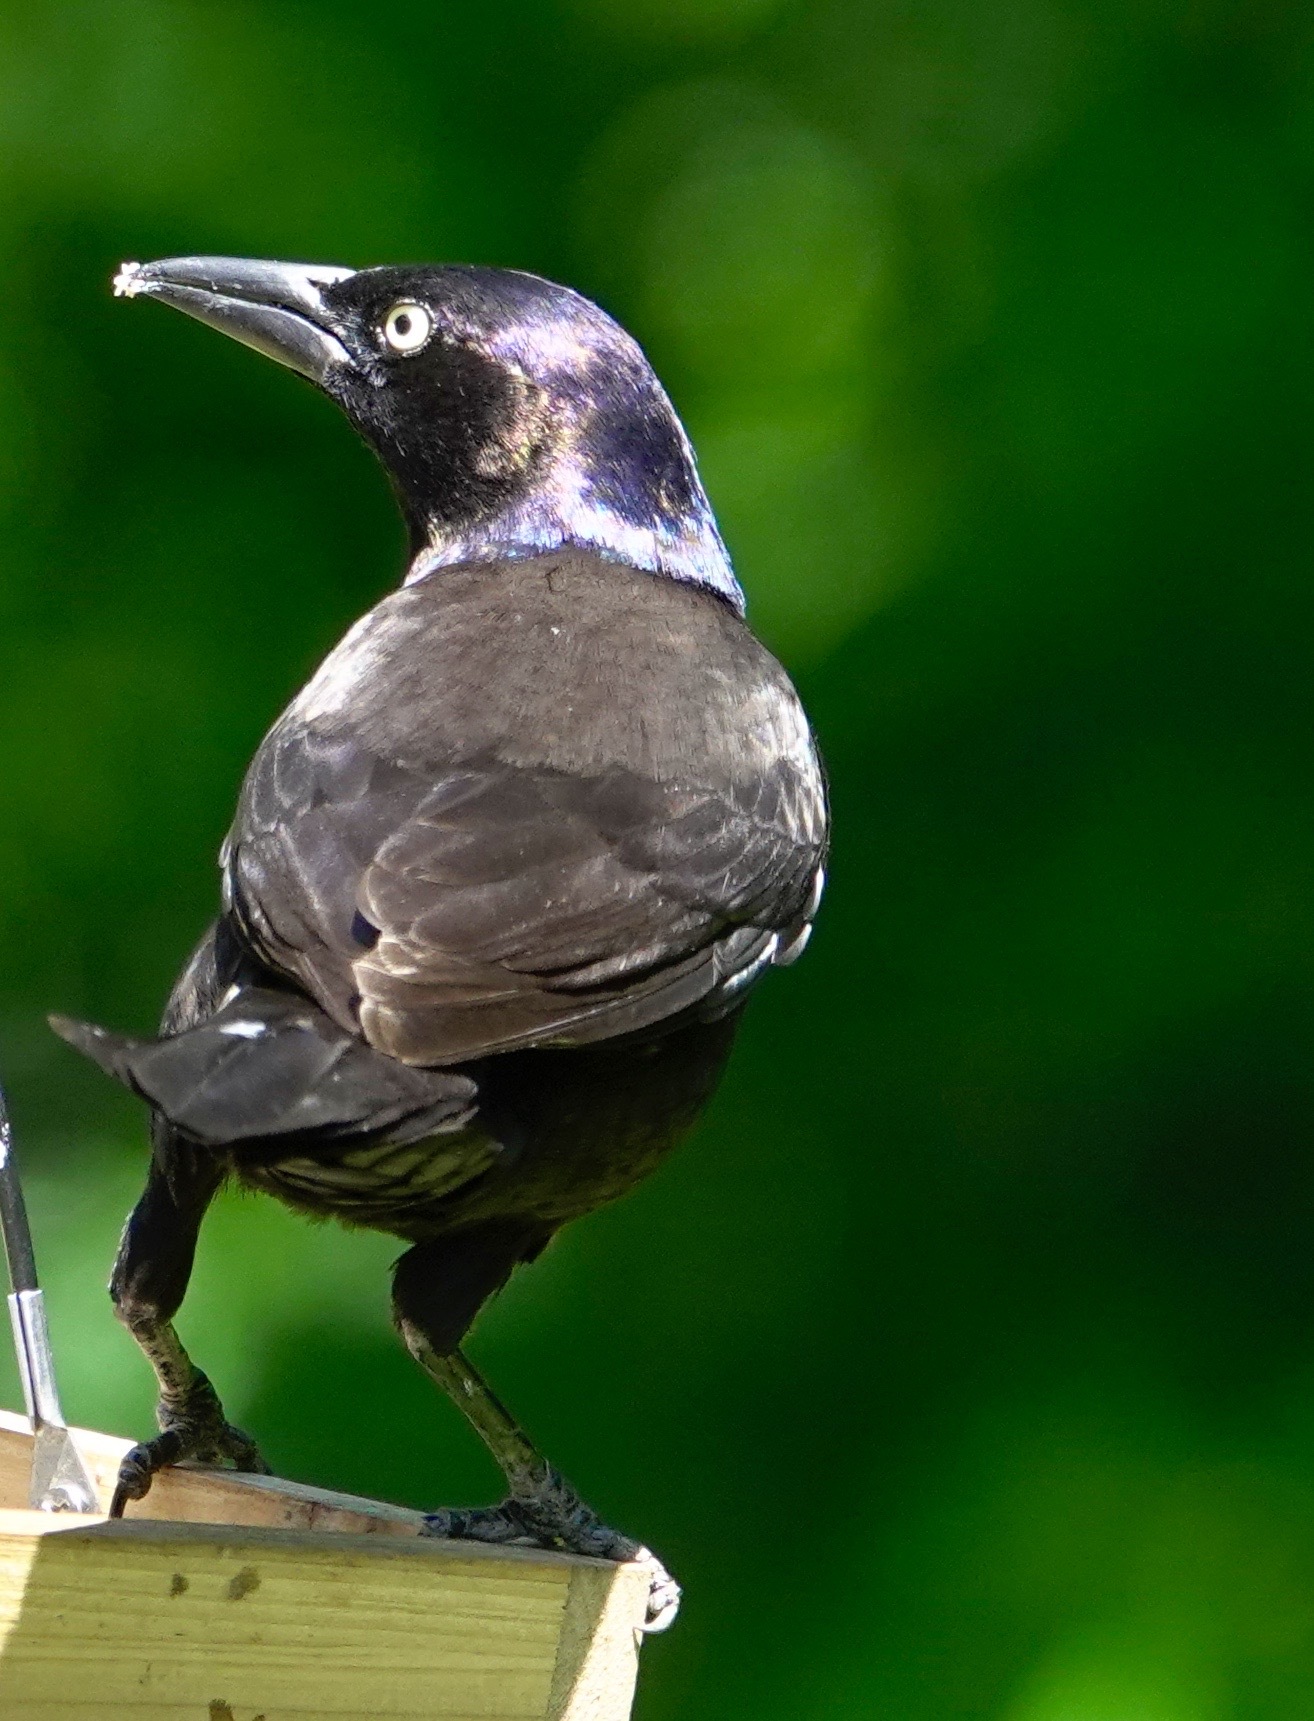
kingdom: Animalia
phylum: Chordata
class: Aves
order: Passeriformes
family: Icteridae
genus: Quiscalus
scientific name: Quiscalus quiscula
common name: Common grackle
